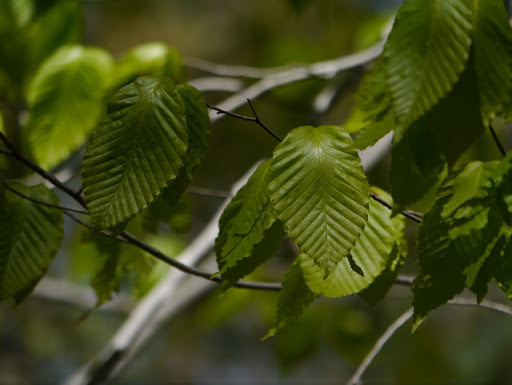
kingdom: Plantae
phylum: Tracheophyta
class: Magnoliopsida
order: Fagales
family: Fagaceae
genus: Fagus
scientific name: Fagus grandifolia
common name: American beech
